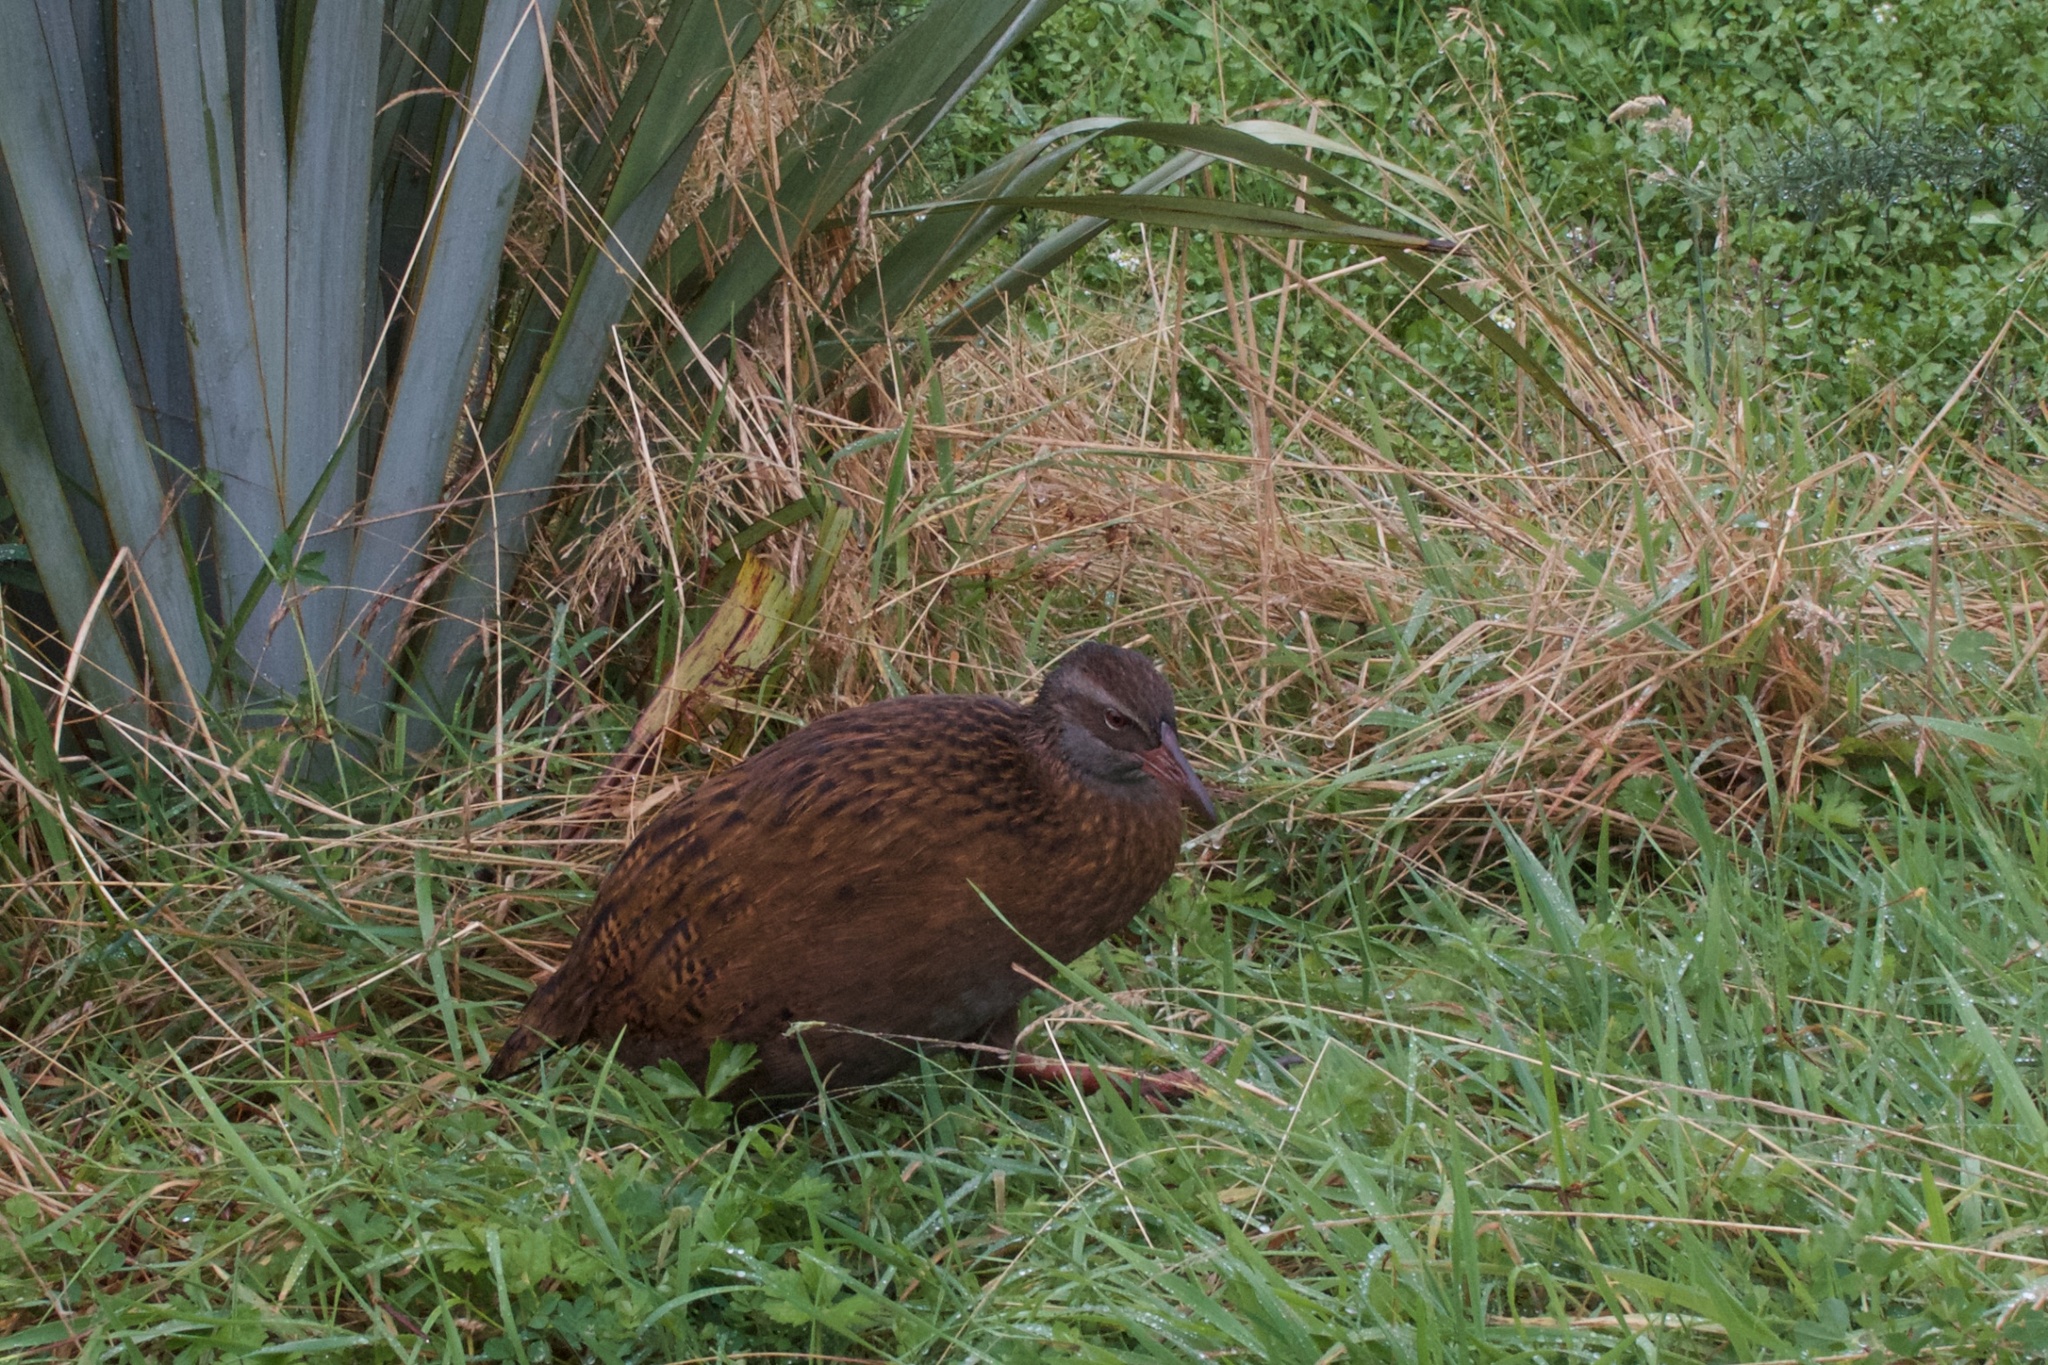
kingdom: Animalia
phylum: Chordata
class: Aves
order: Gruiformes
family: Rallidae
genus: Gallirallus
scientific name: Gallirallus australis
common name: Weka
